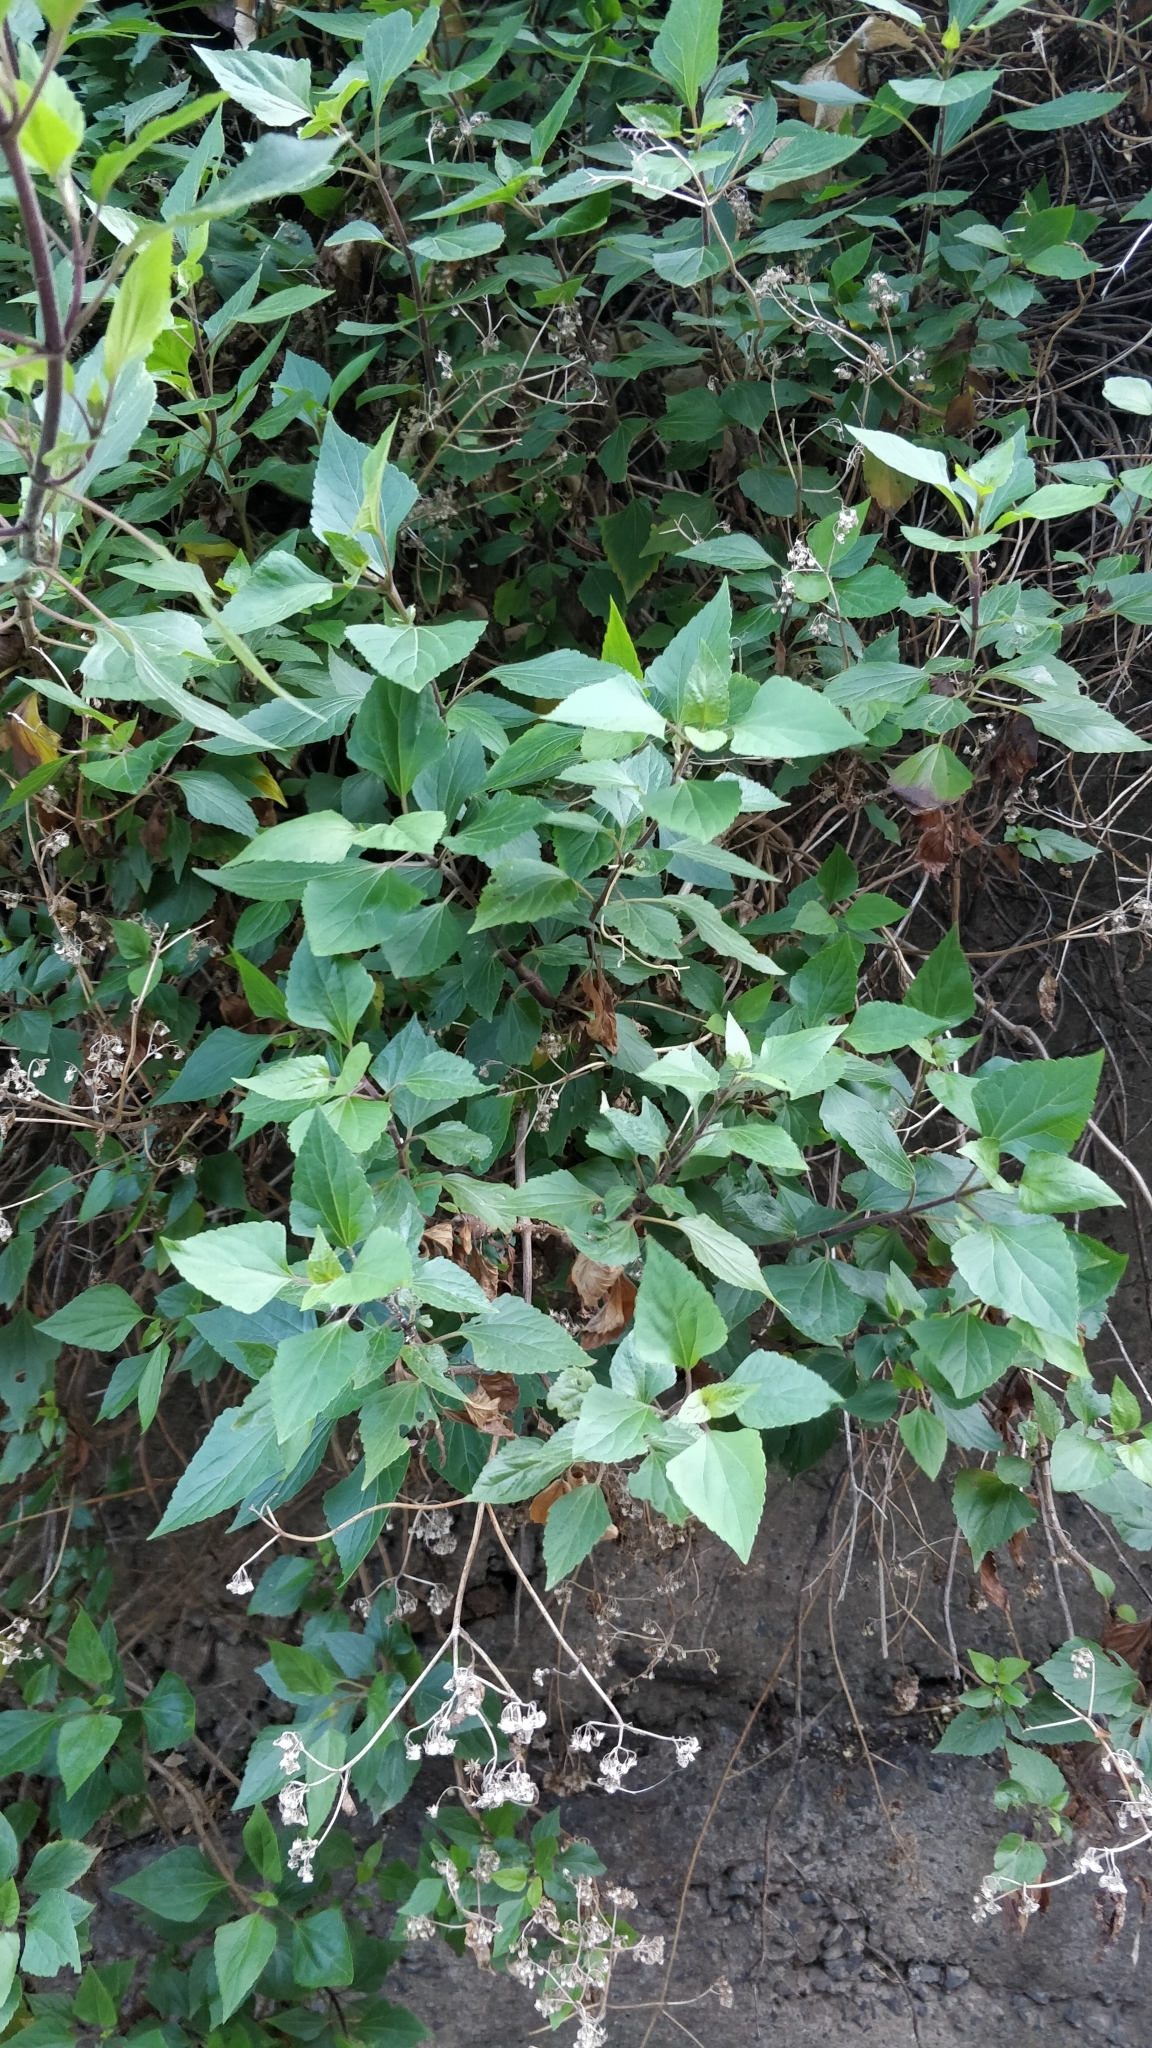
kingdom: Plantae
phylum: Tracheophyta
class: Magnoliopsida
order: Asterales
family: Asteraceae
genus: Ageratina
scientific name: Ageratina adenophora
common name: Sticky snakeroot
